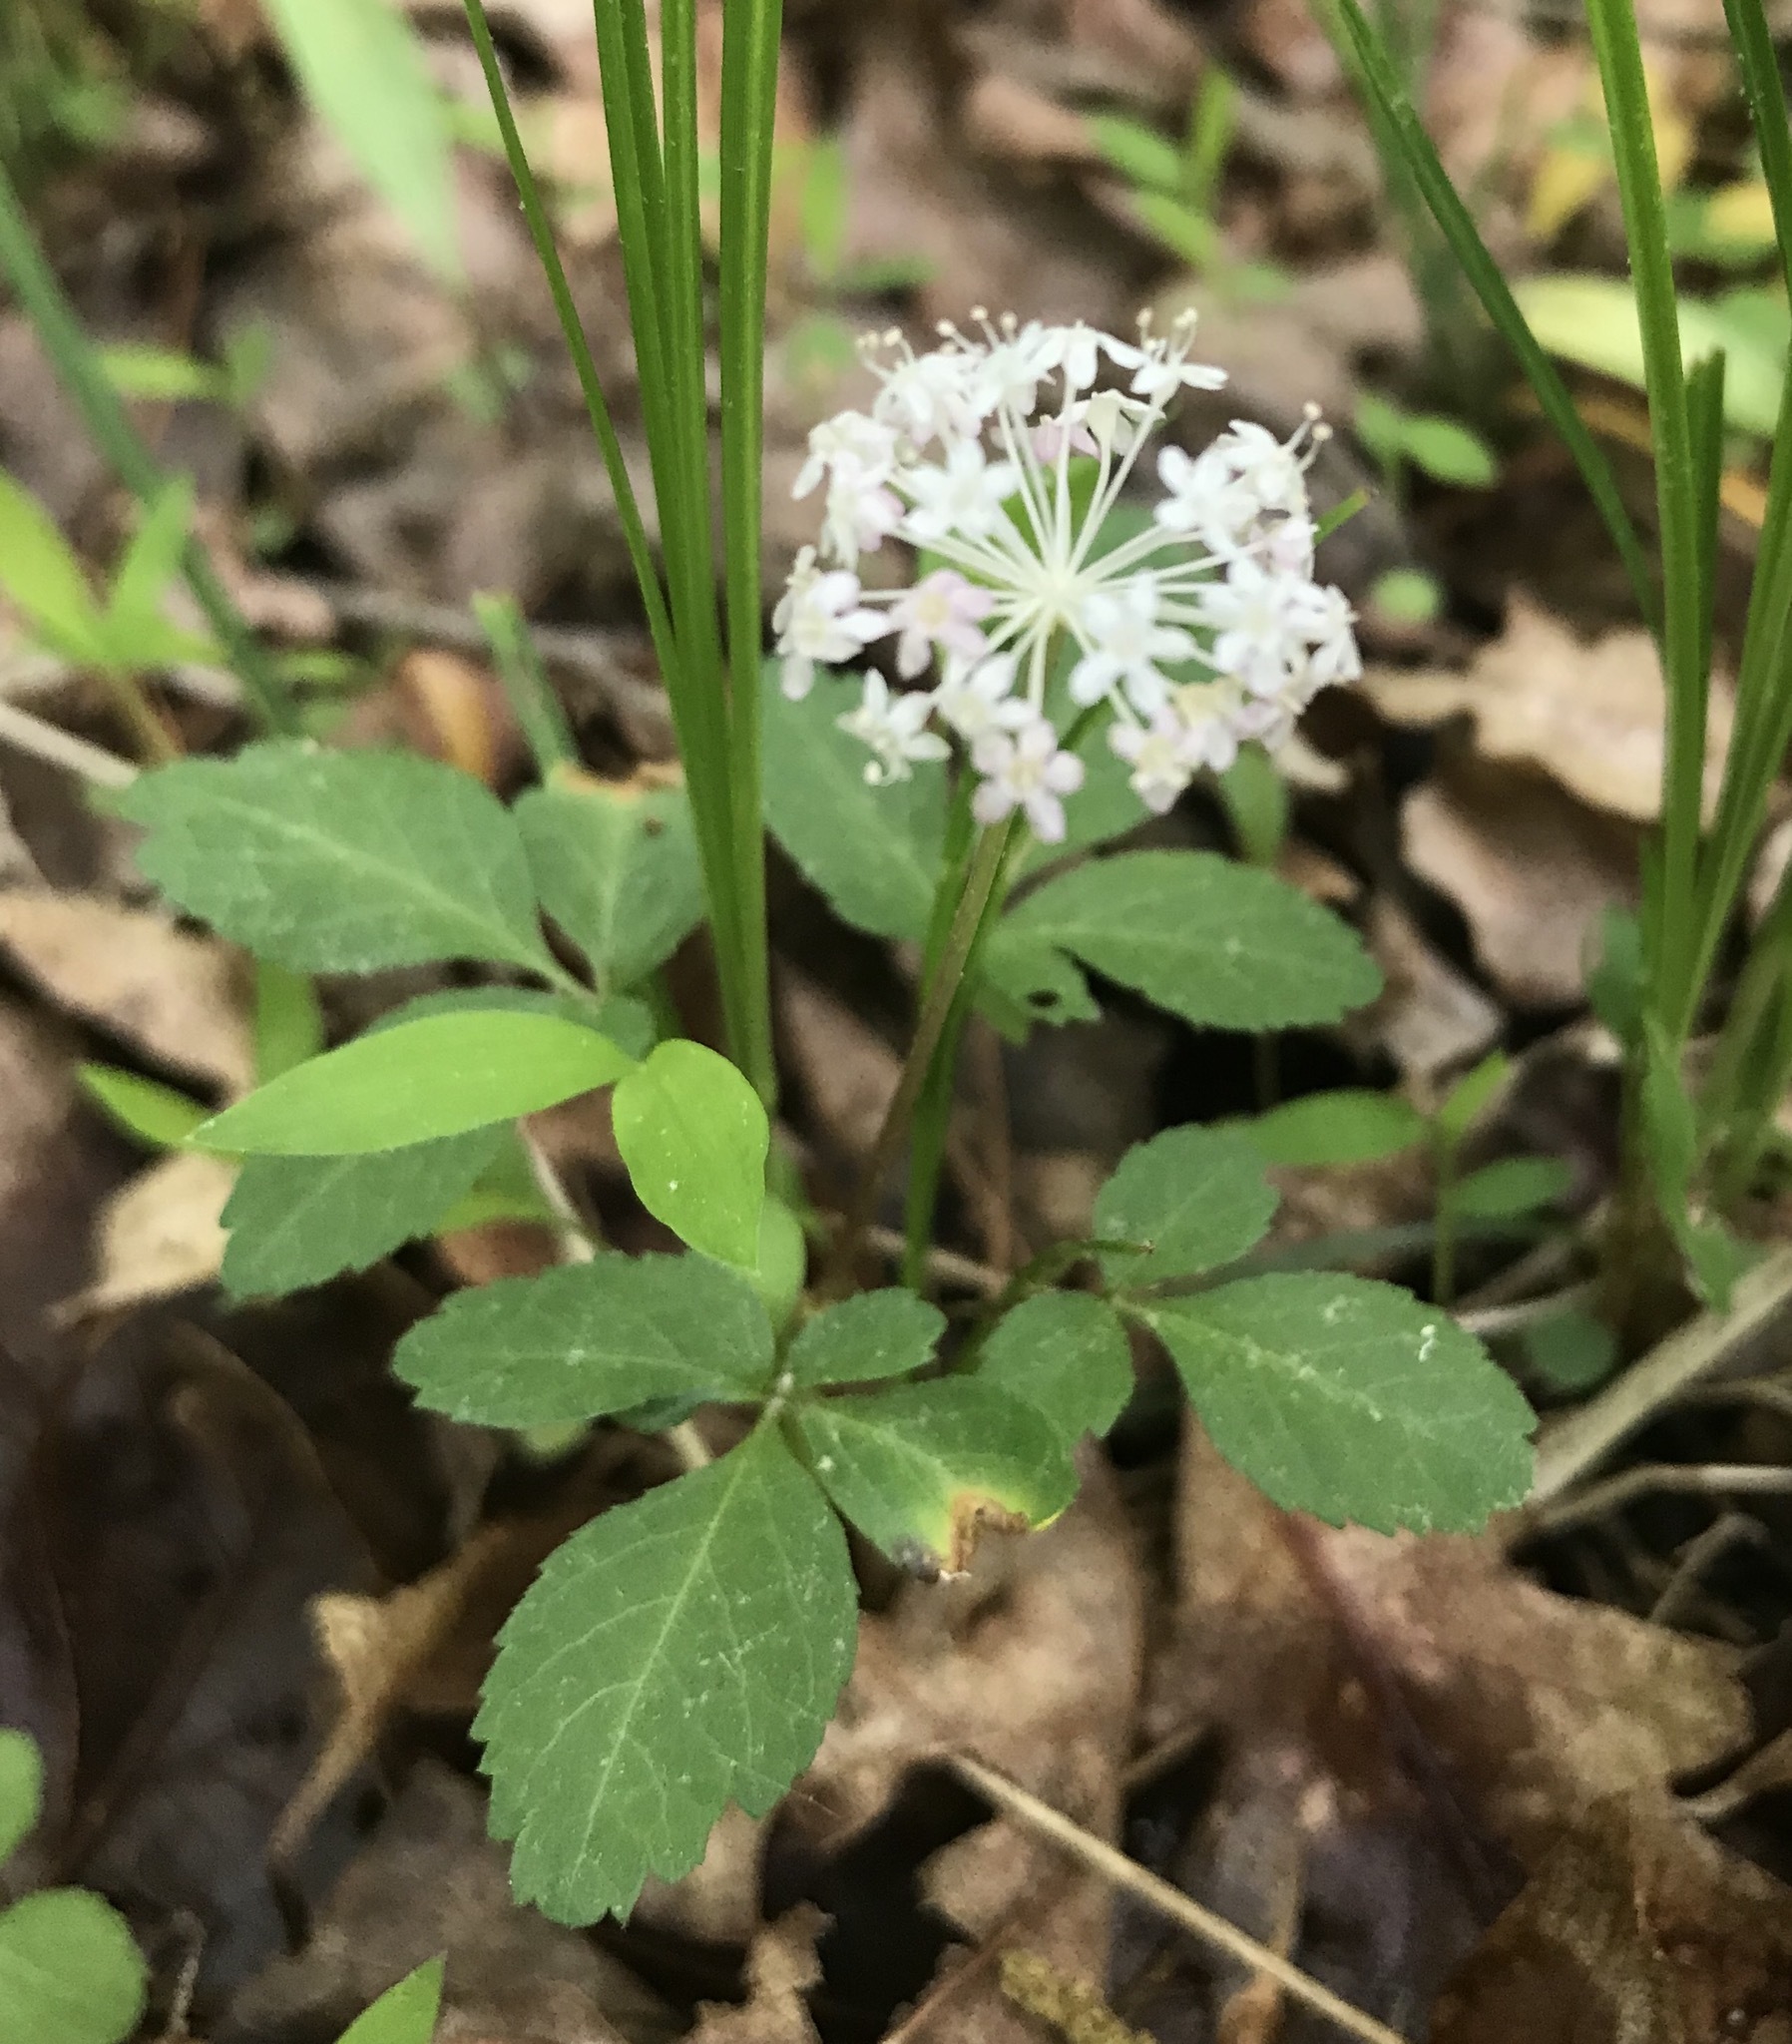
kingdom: Plantae
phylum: Tracheophyta
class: Magnoliopsida
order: Apiales
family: Araliaceae
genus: Panax
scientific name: Panax trifolius
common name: Dwarf ginseng
